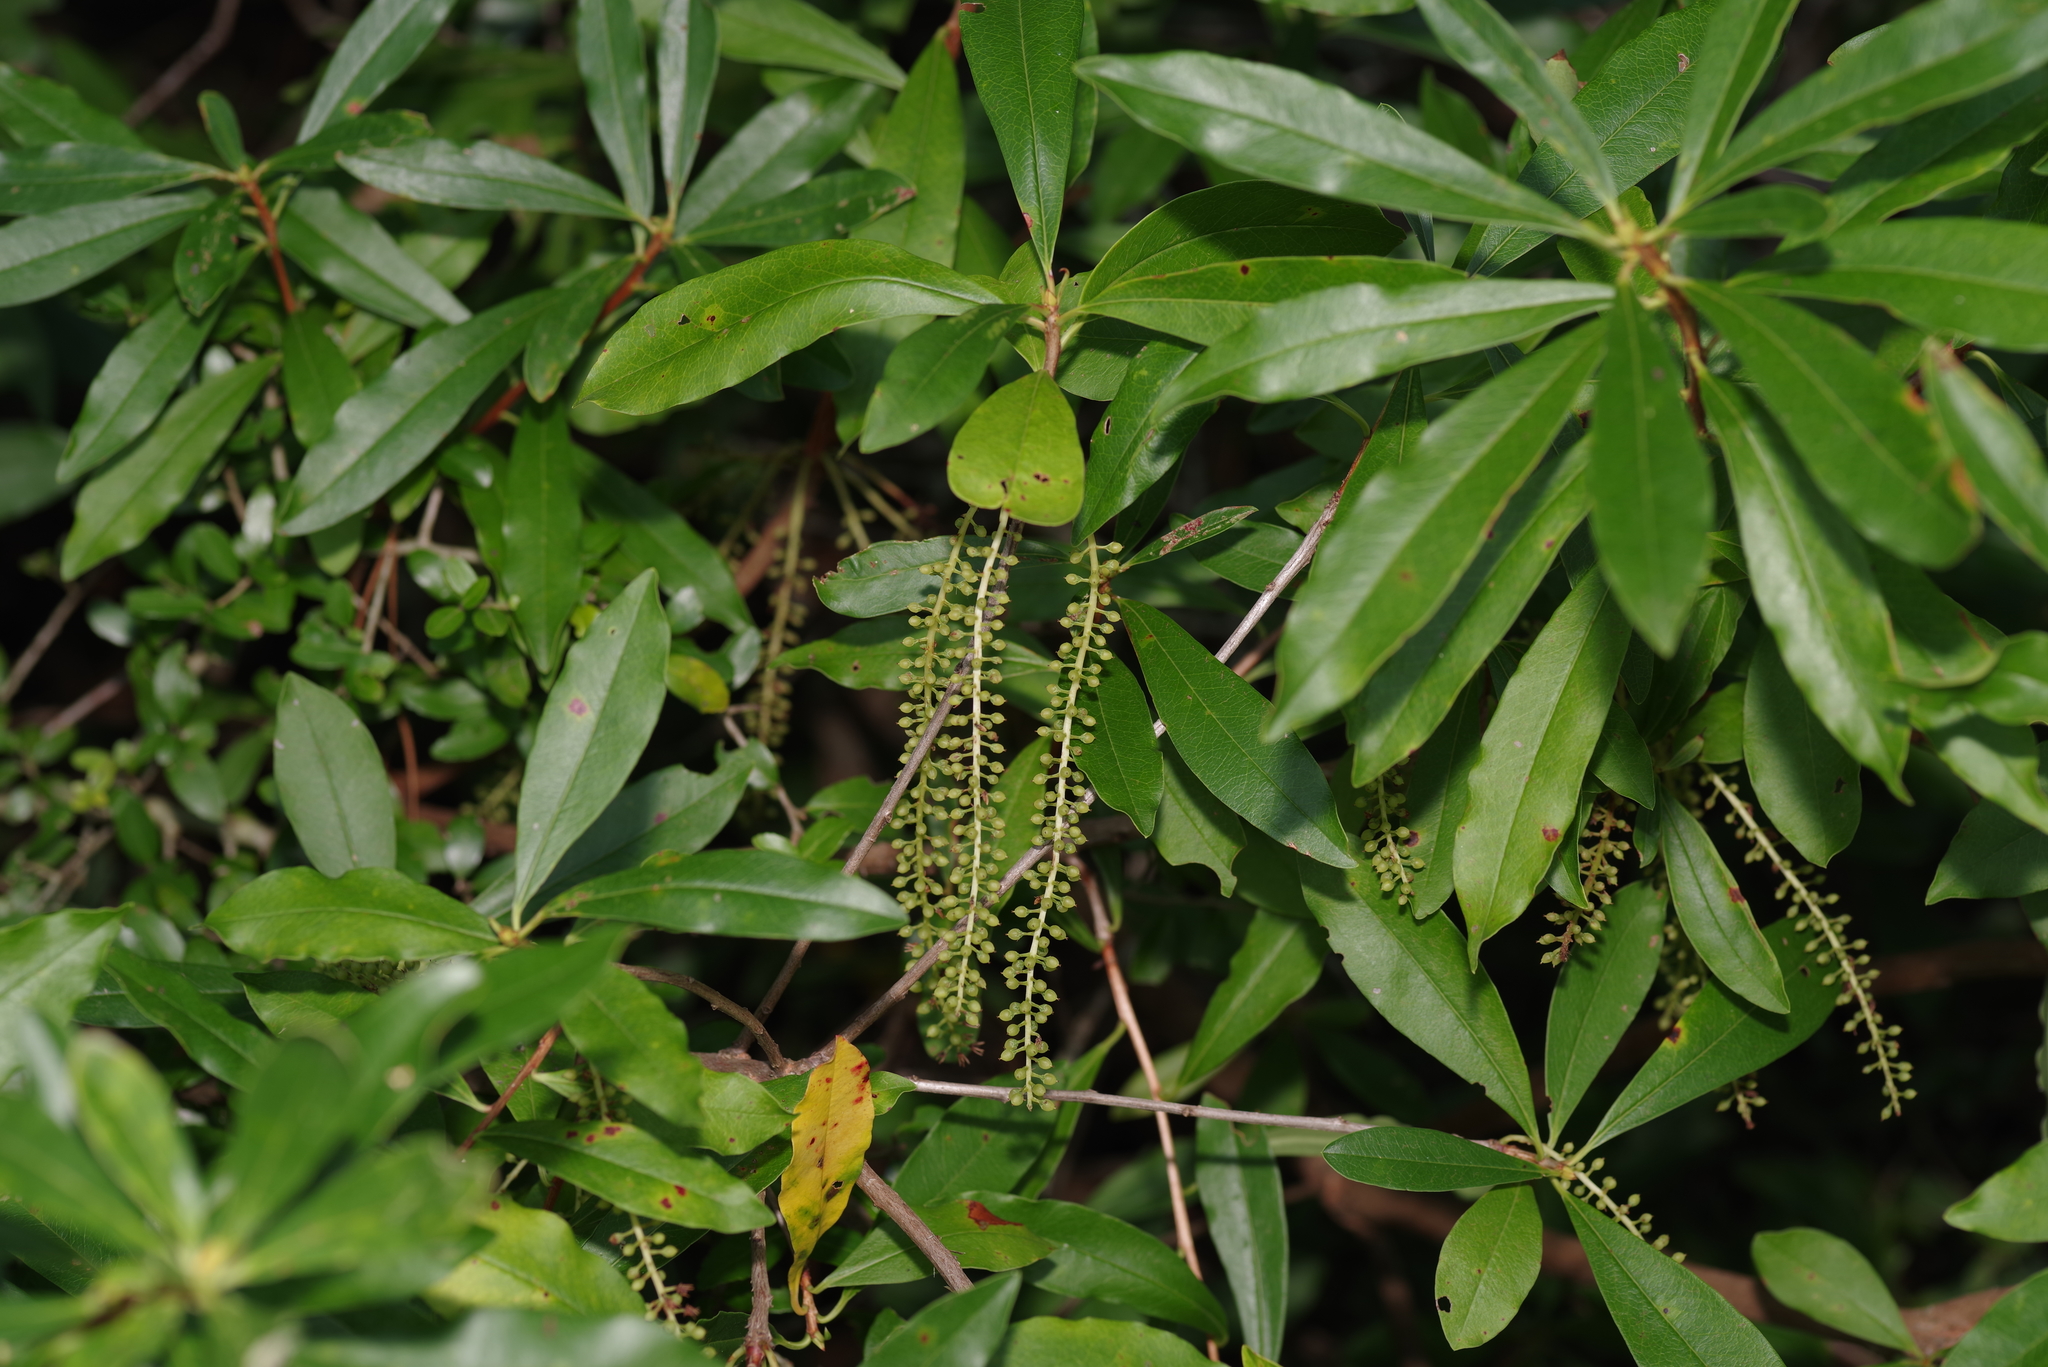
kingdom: Plantae
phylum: Tracheophyta
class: Magnoliopsida
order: Ericales
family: Cyrillaceae
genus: Cyrilla
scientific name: Cyrilla racemiflora
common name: Black titi
